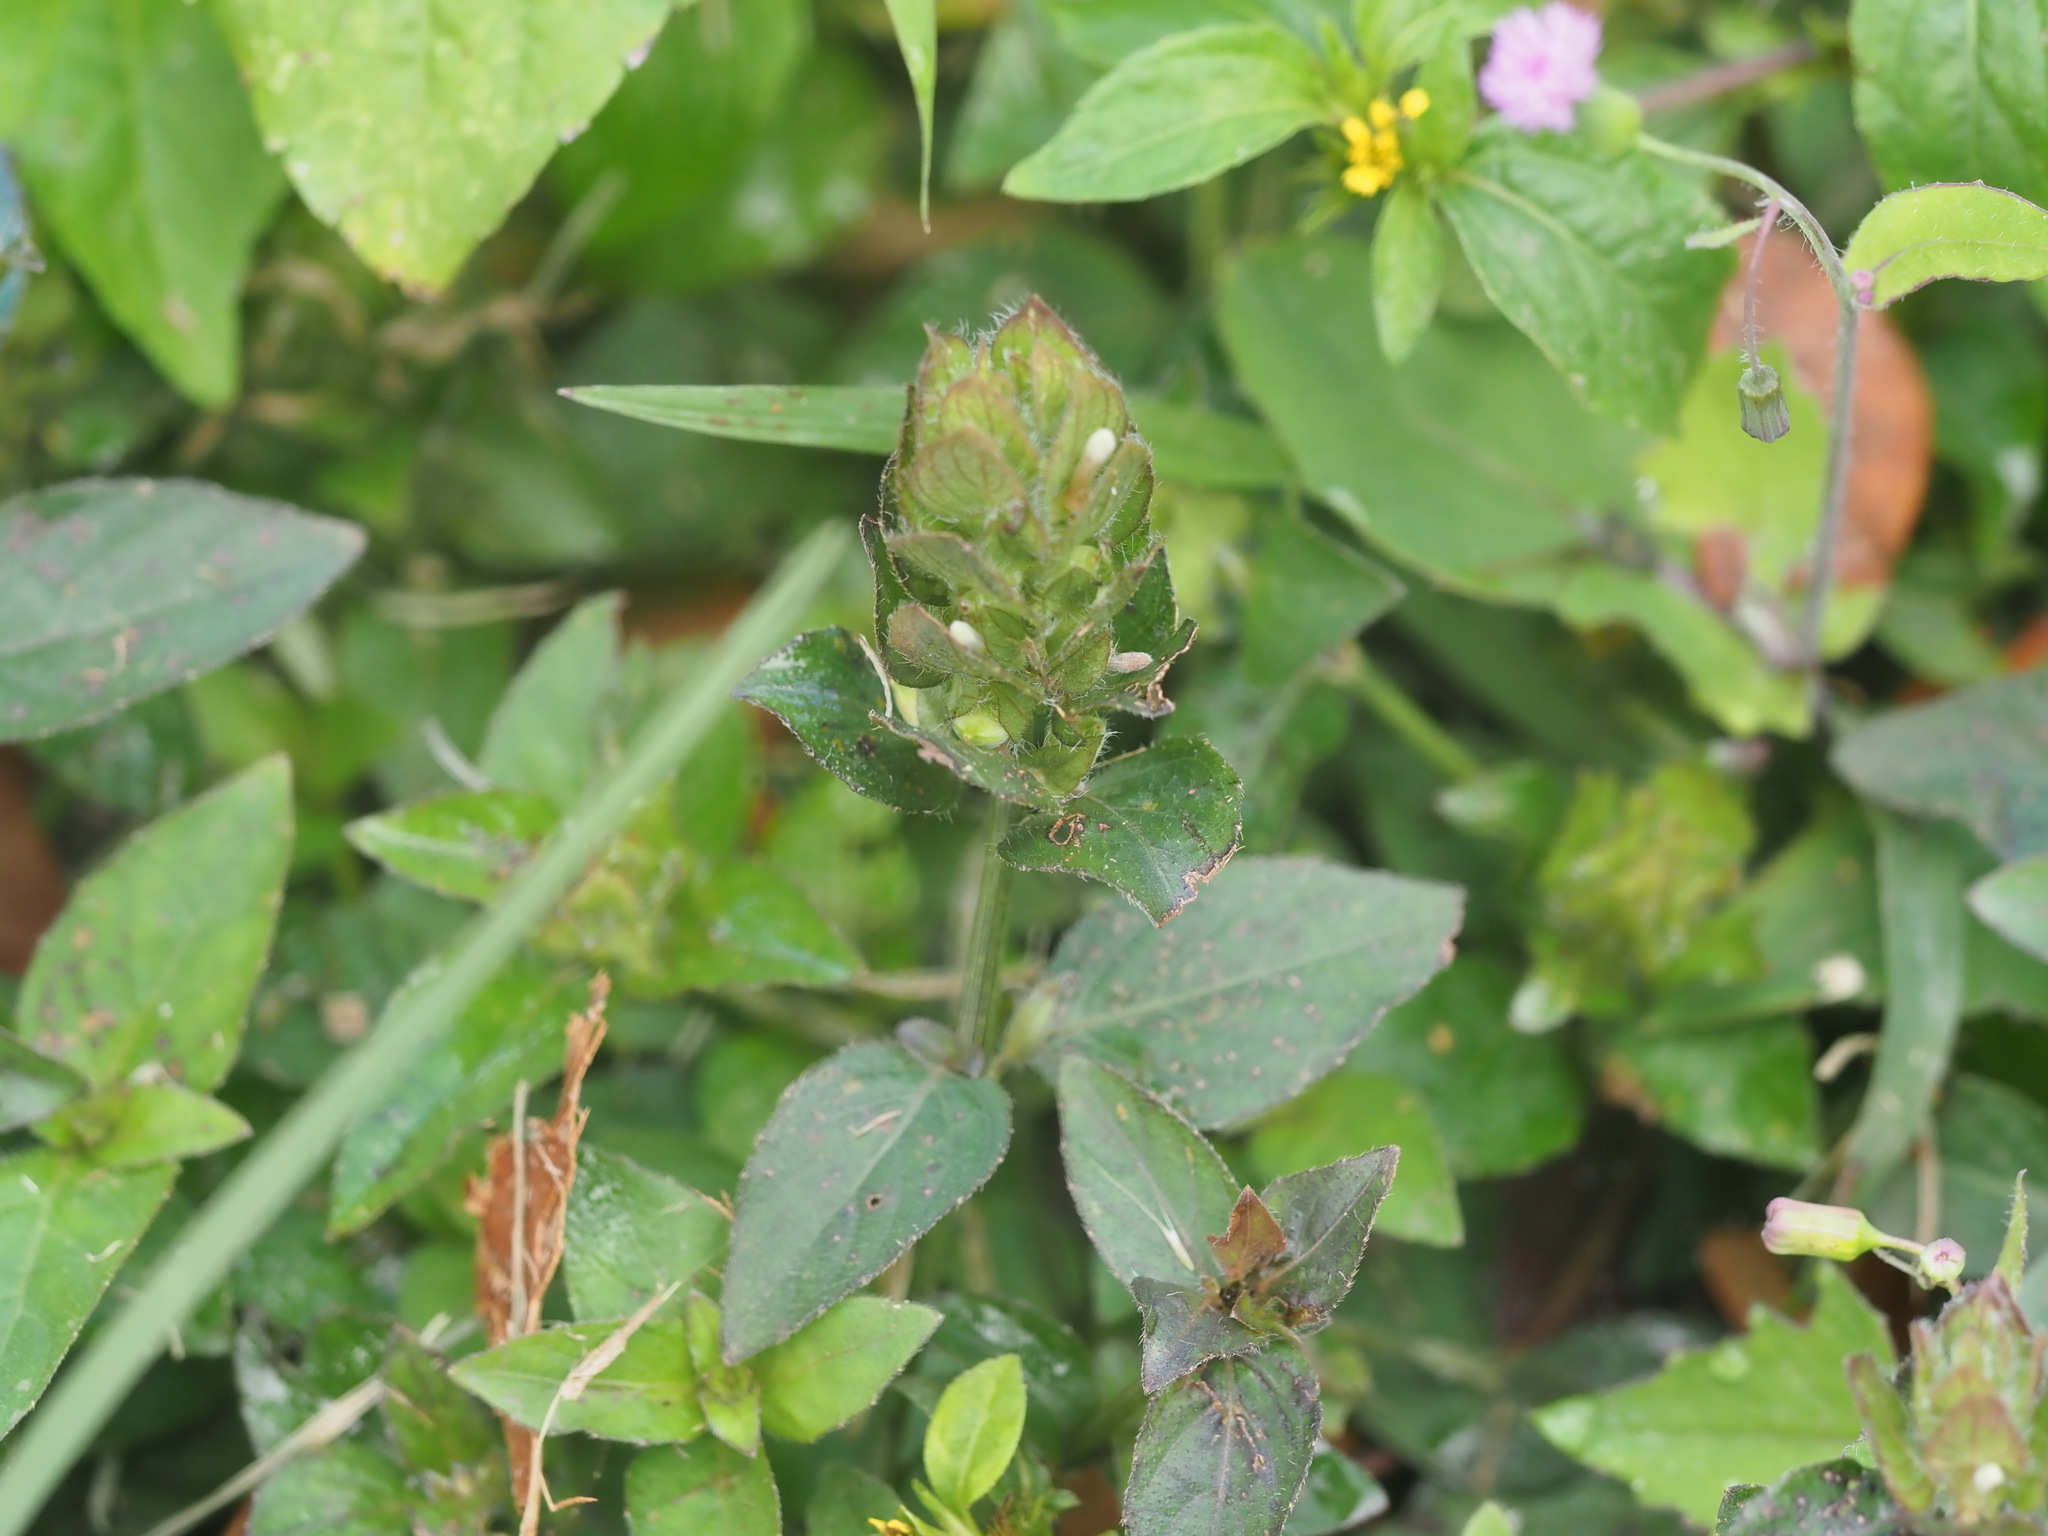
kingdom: Plantae
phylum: Tracheophyta
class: Magnoliopsida
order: Lamiales
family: Acanthaceae
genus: Ruellia
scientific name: Ruellia blechum
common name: Browne's blechum
